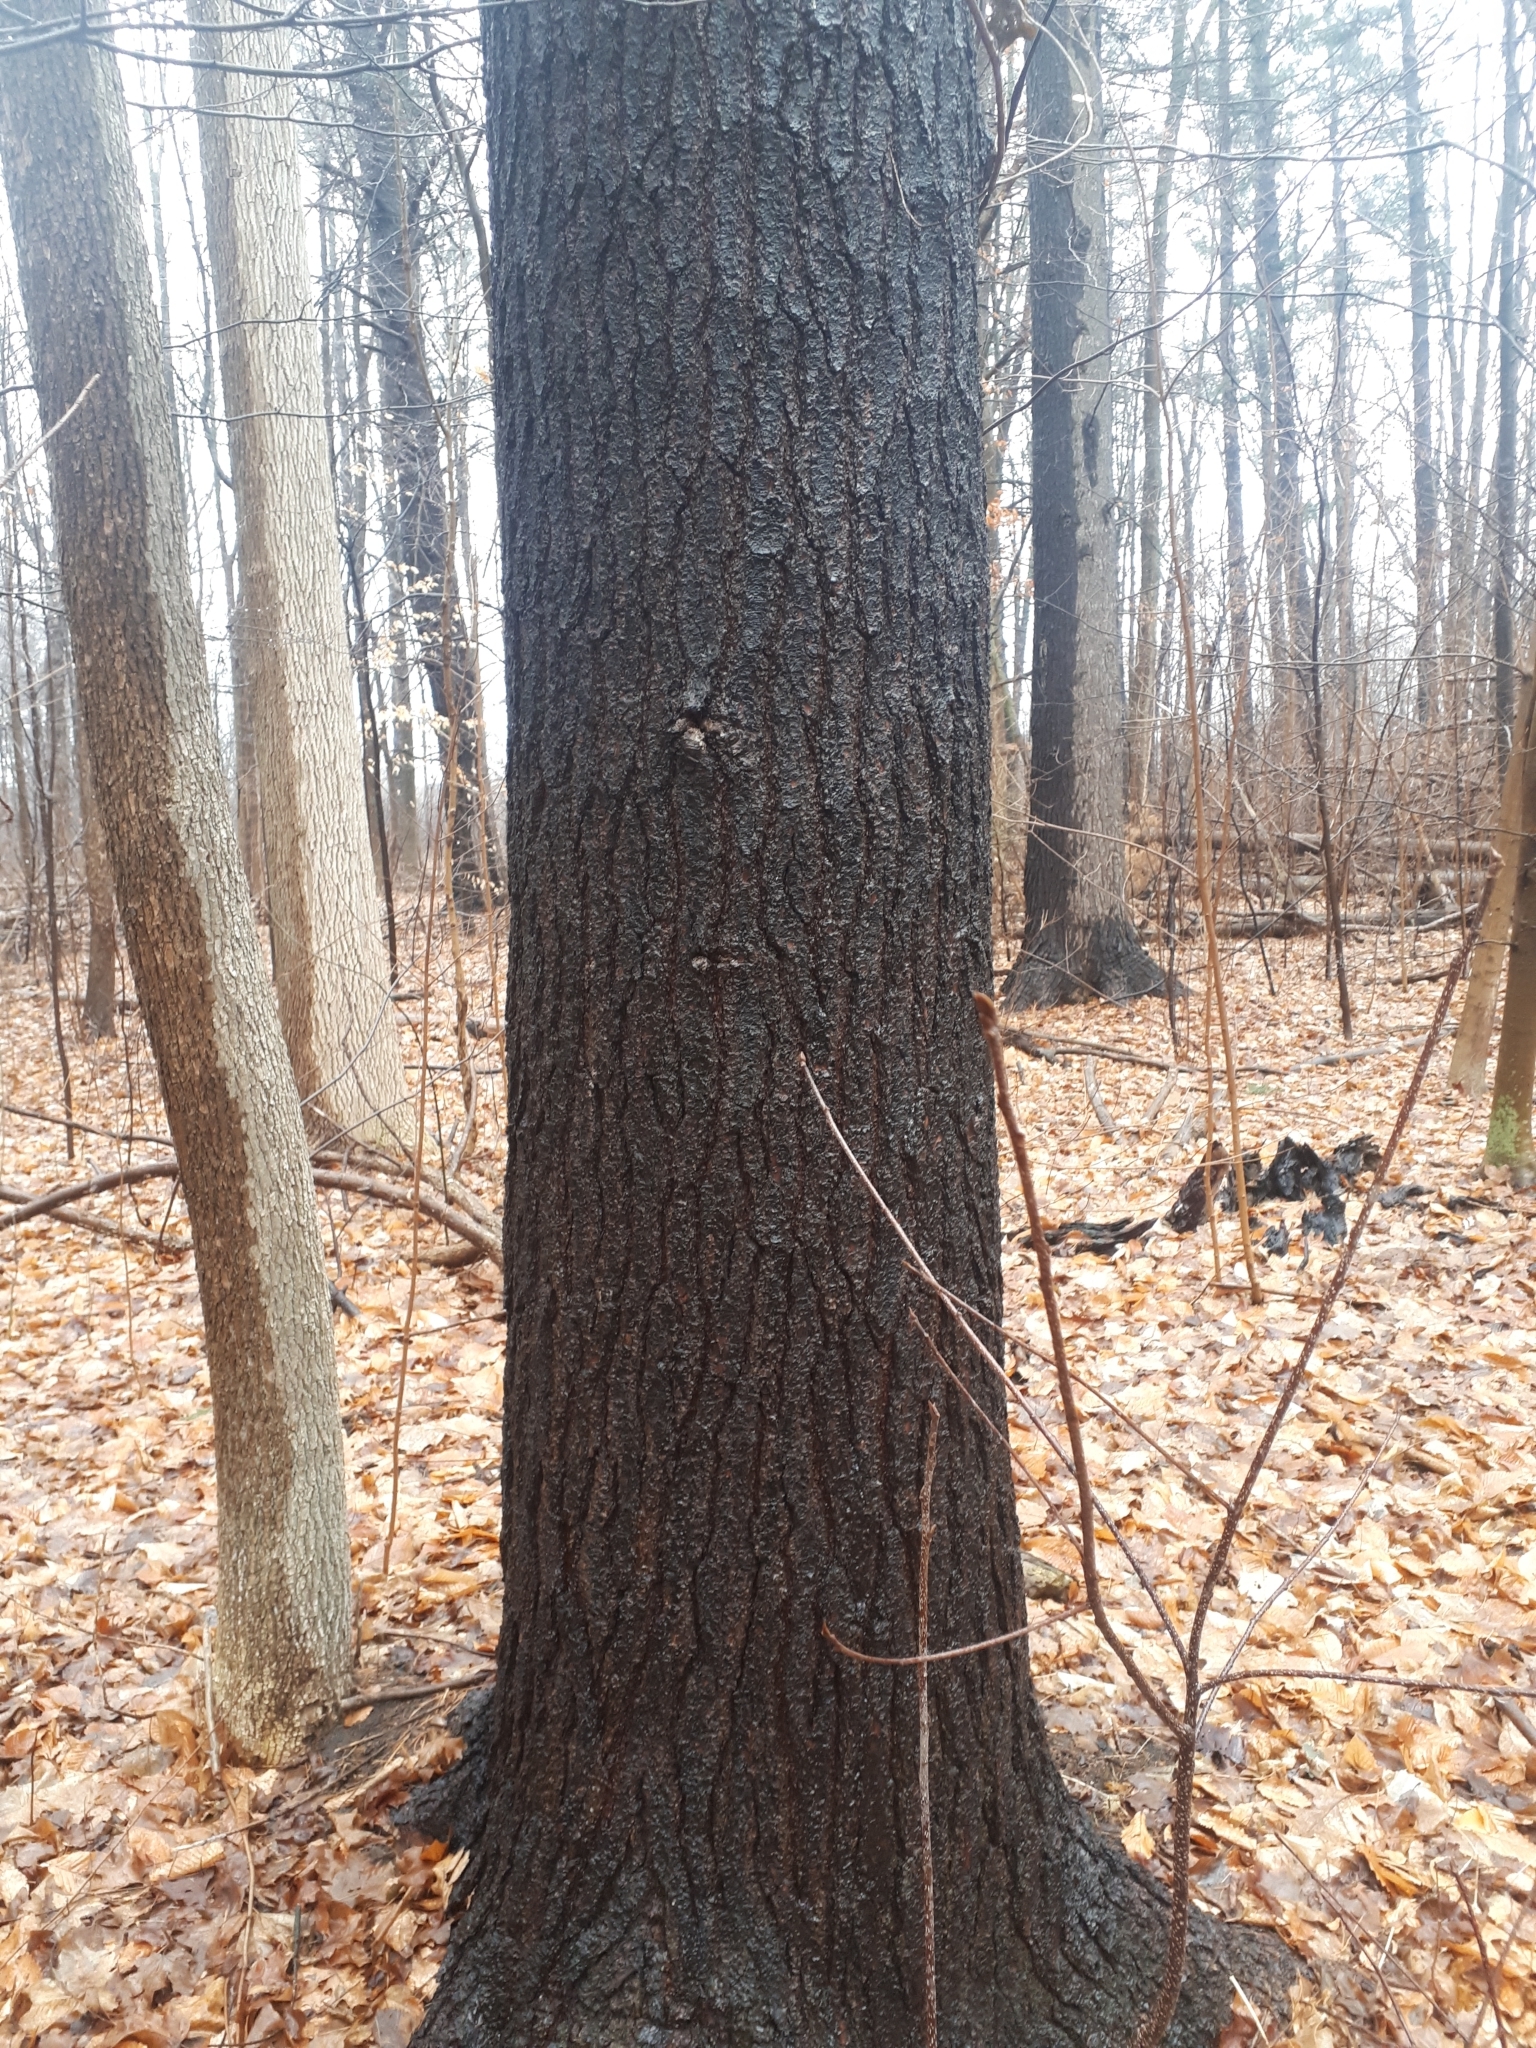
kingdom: Plantae
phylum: Tracheophyta
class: Pinopsida
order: Pinales
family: Pinaceae
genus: Pinus
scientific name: Pinus strobus
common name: Weymouth pine
